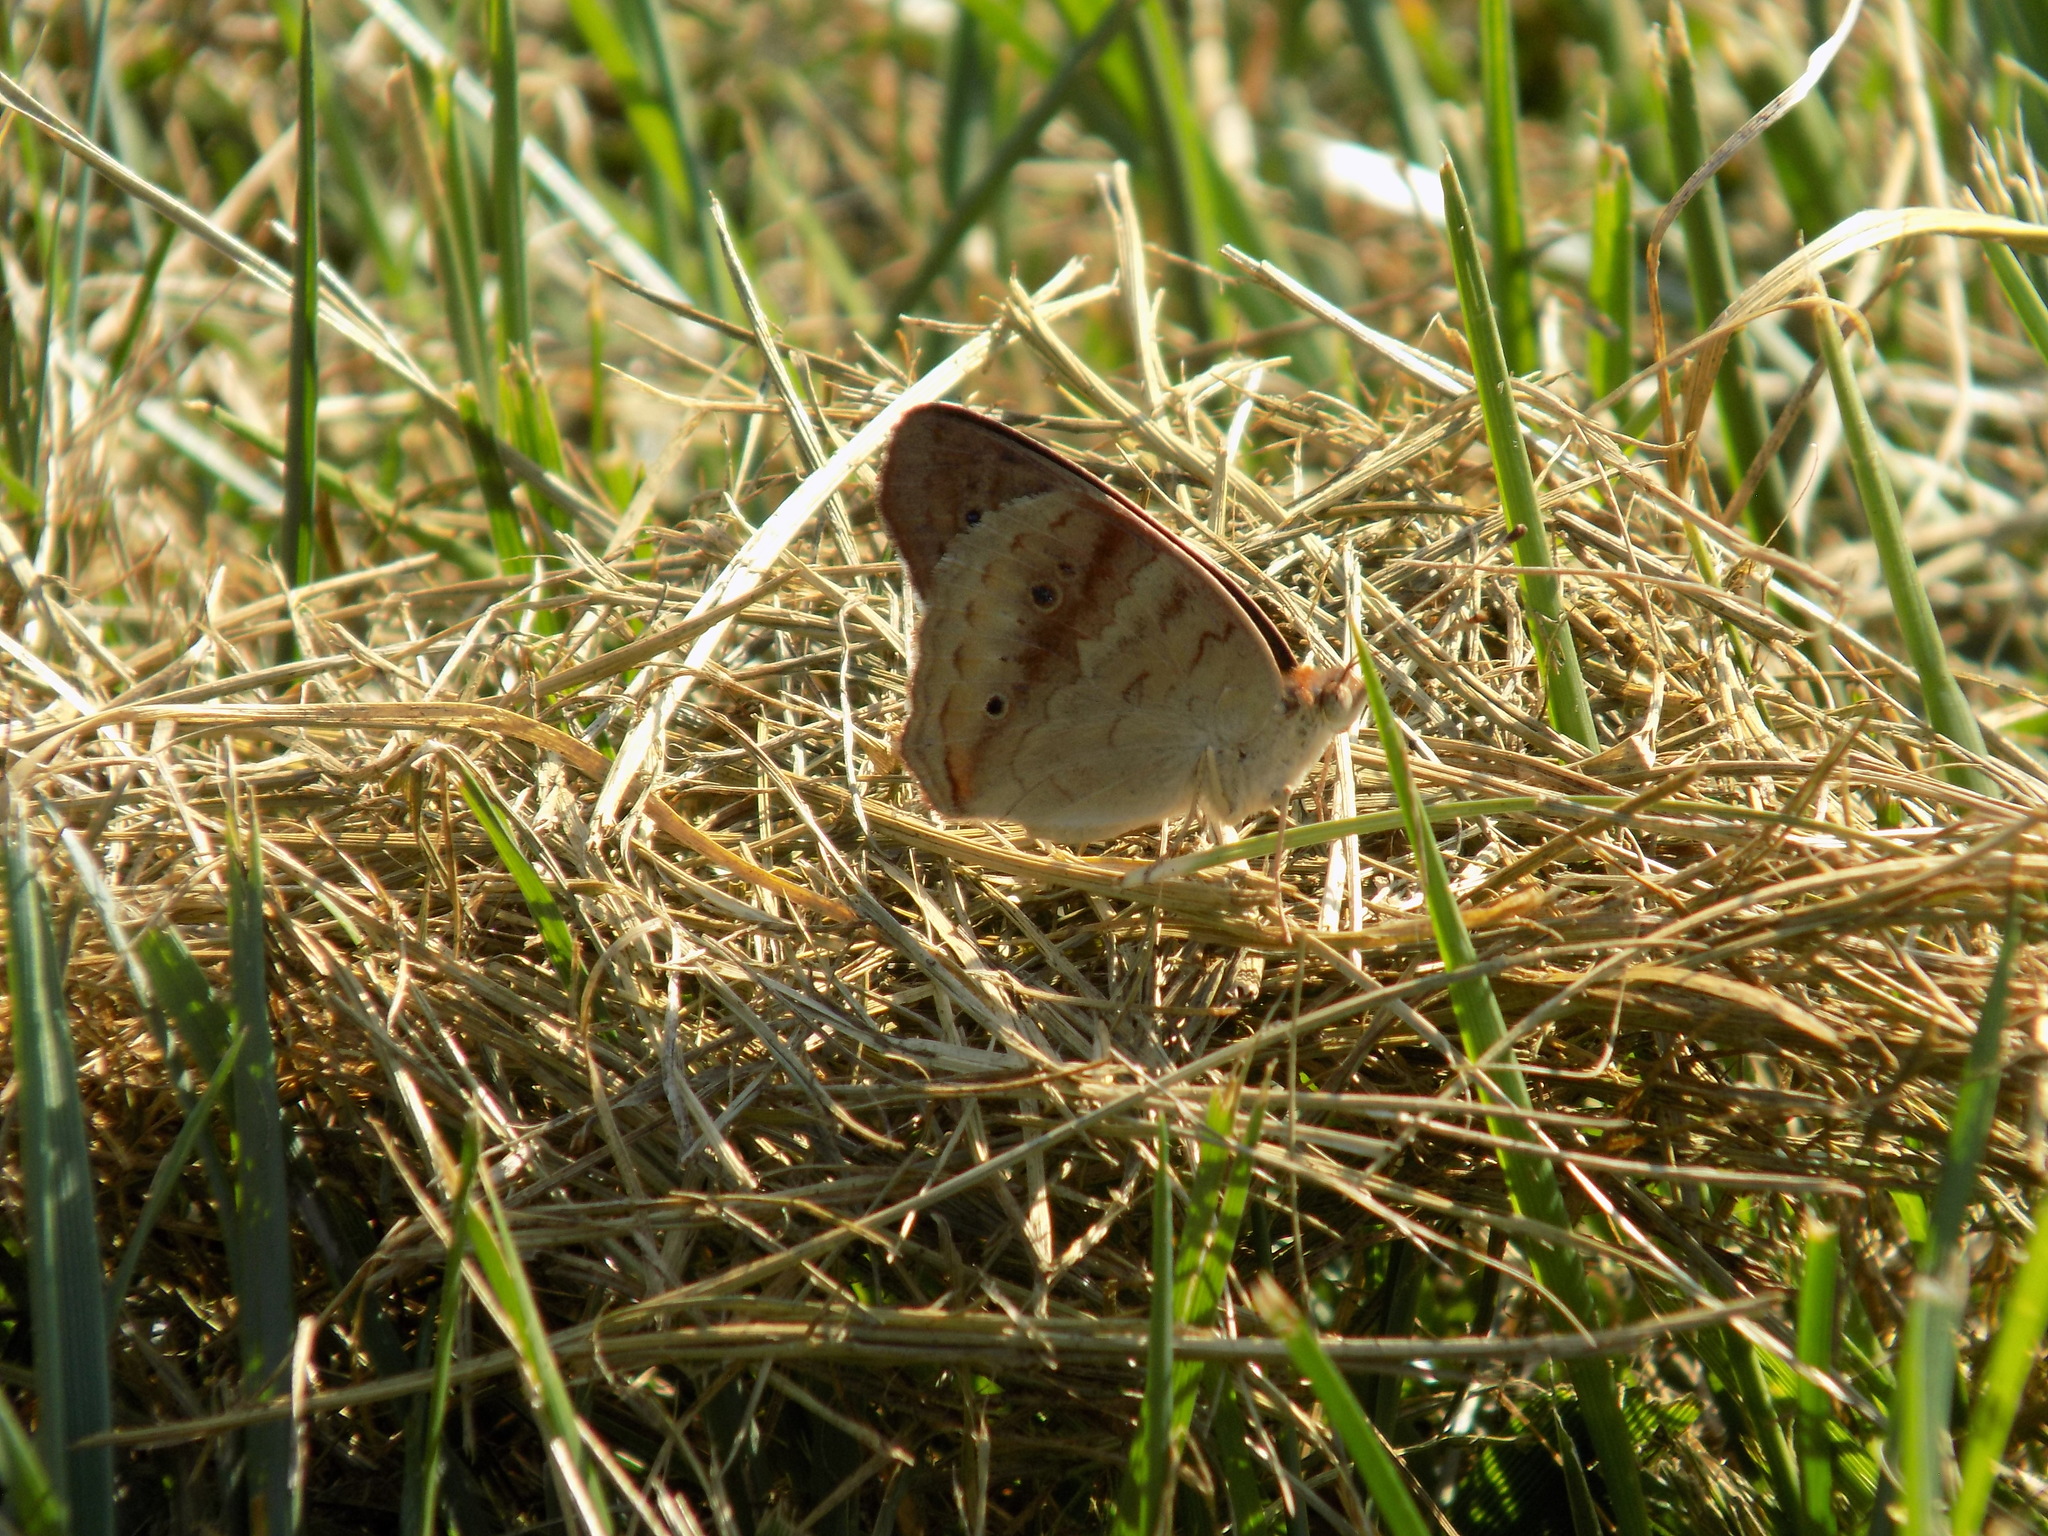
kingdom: Animalia
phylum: Arthropoda
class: Insecta
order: Lepidoptera
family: Nymphalidae
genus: Junonia
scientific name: Junonia coenia
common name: Common buckeye
